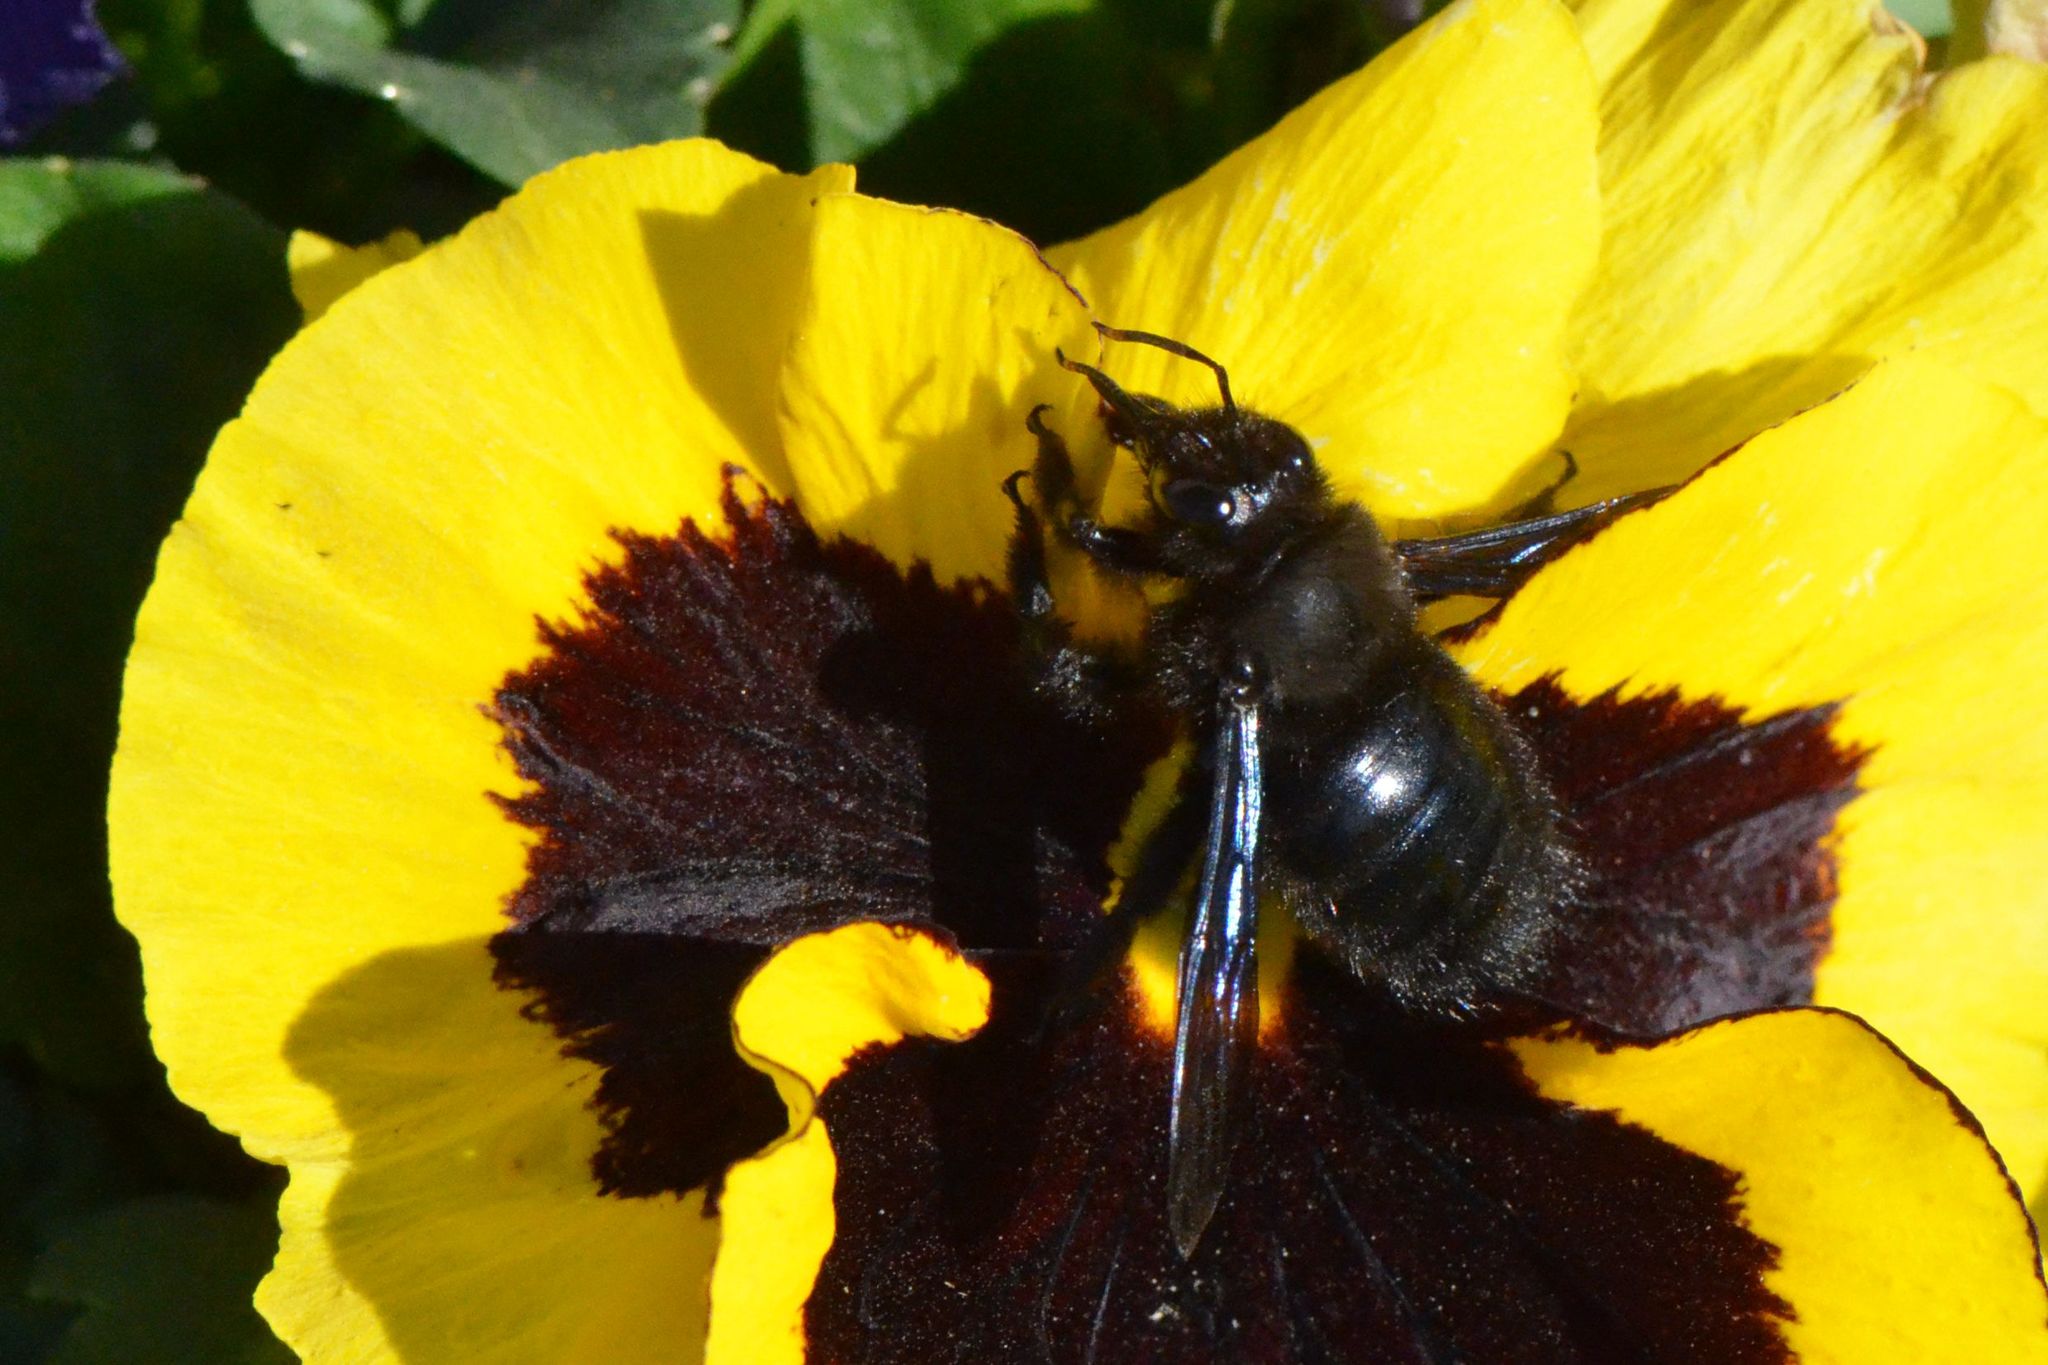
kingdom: Animalia
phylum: Arthropoda
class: Insecta
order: Hymenoptera
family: Apidae
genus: Xylocopa
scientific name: Xylocopa violacea
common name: Violet carpenter bee
